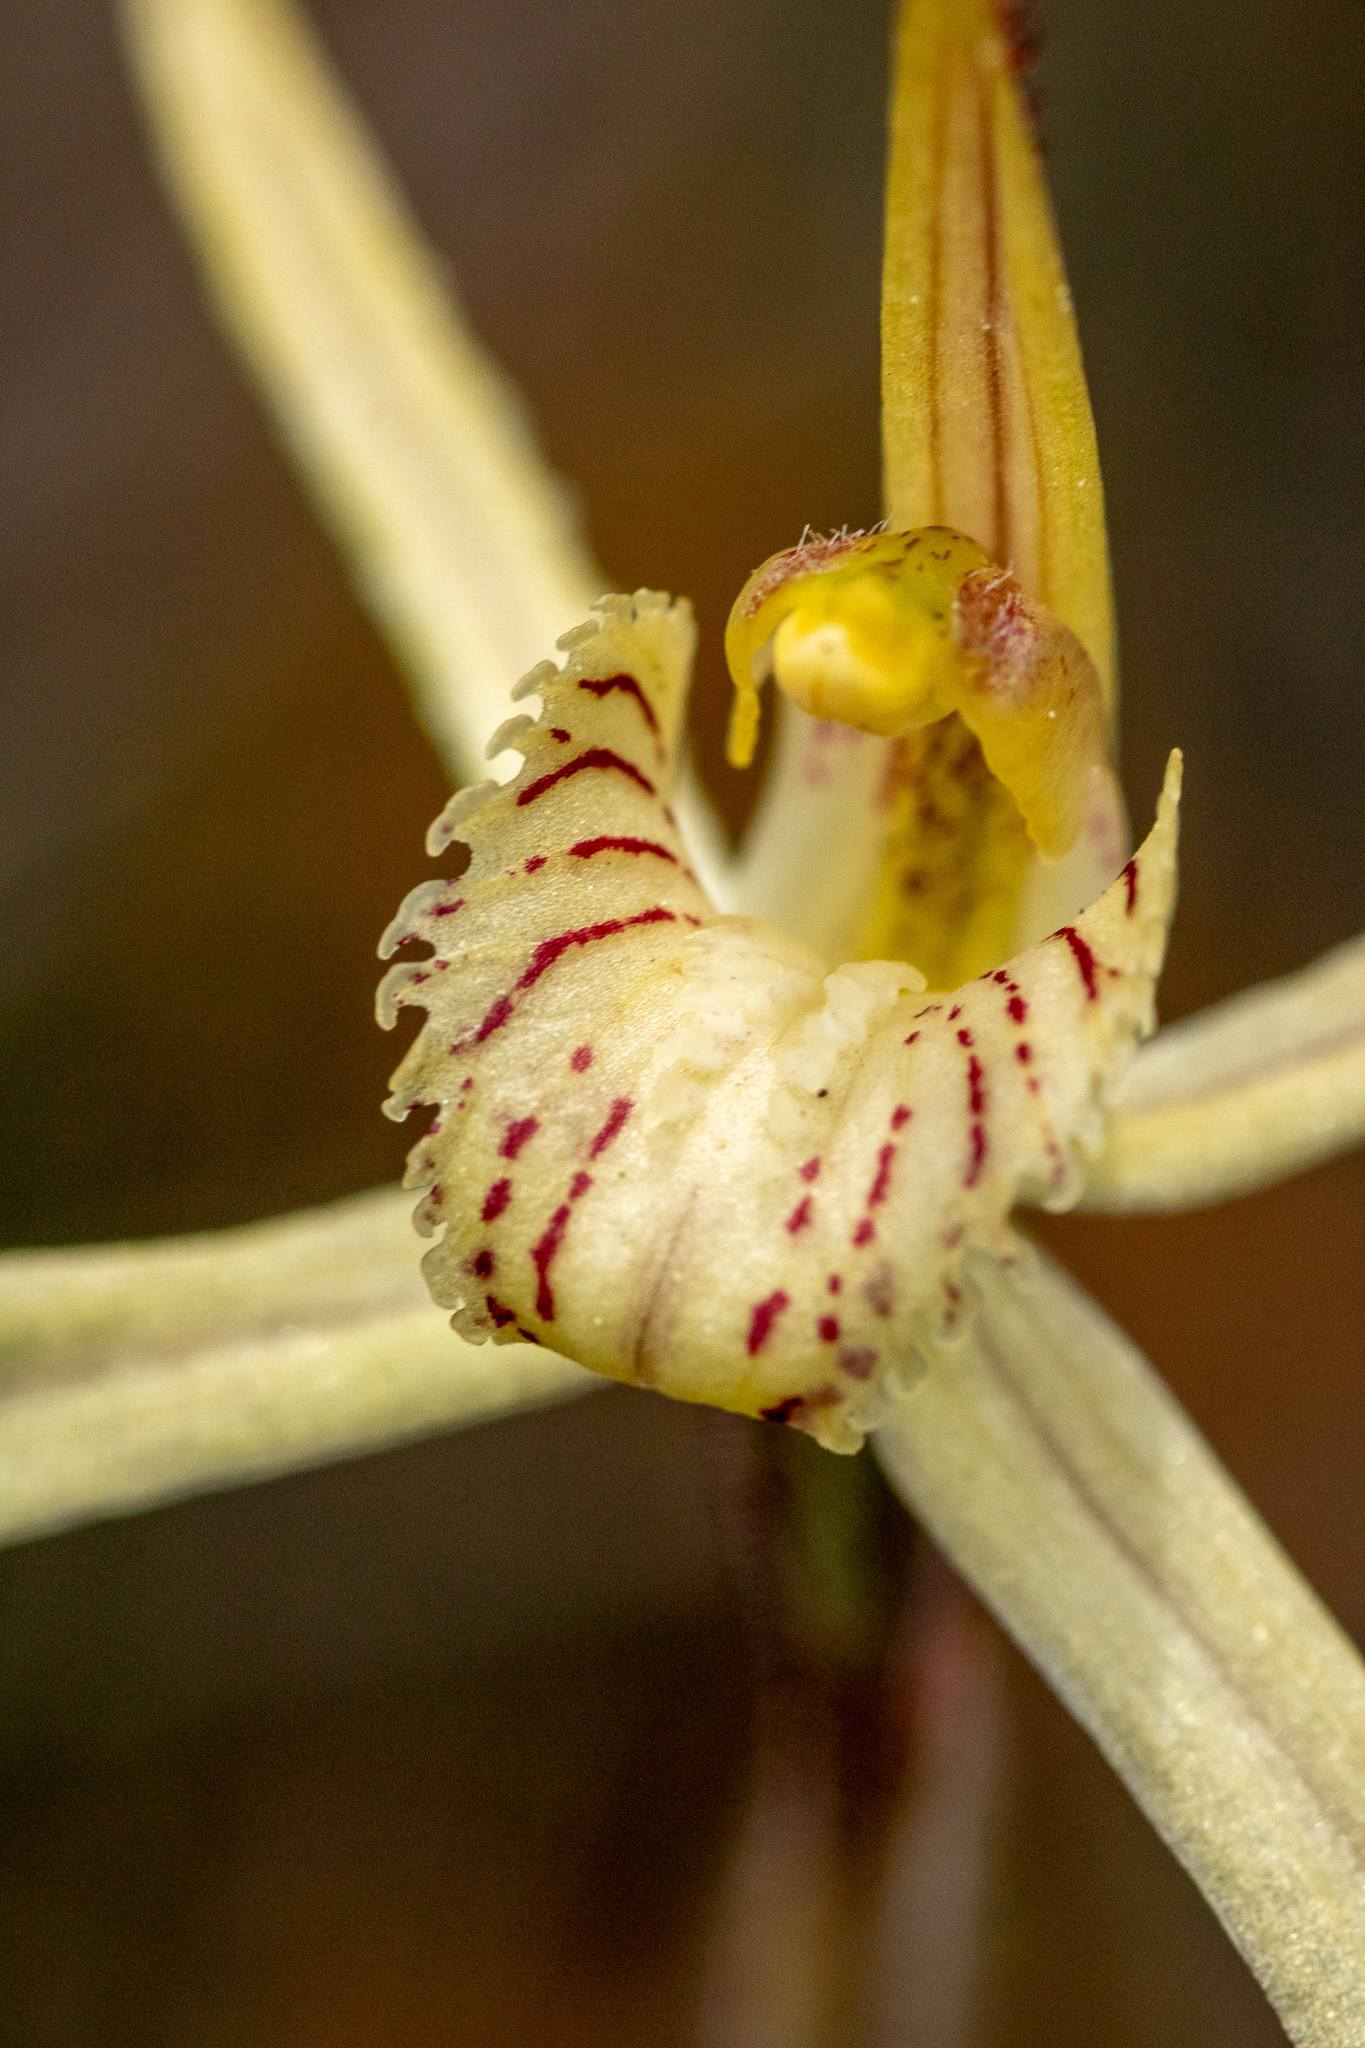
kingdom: Plantae
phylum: Tracheophyta
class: Liliopsida
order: Asparagales
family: Orchidaceae
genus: Caladenia
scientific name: Caladenia straminichila
